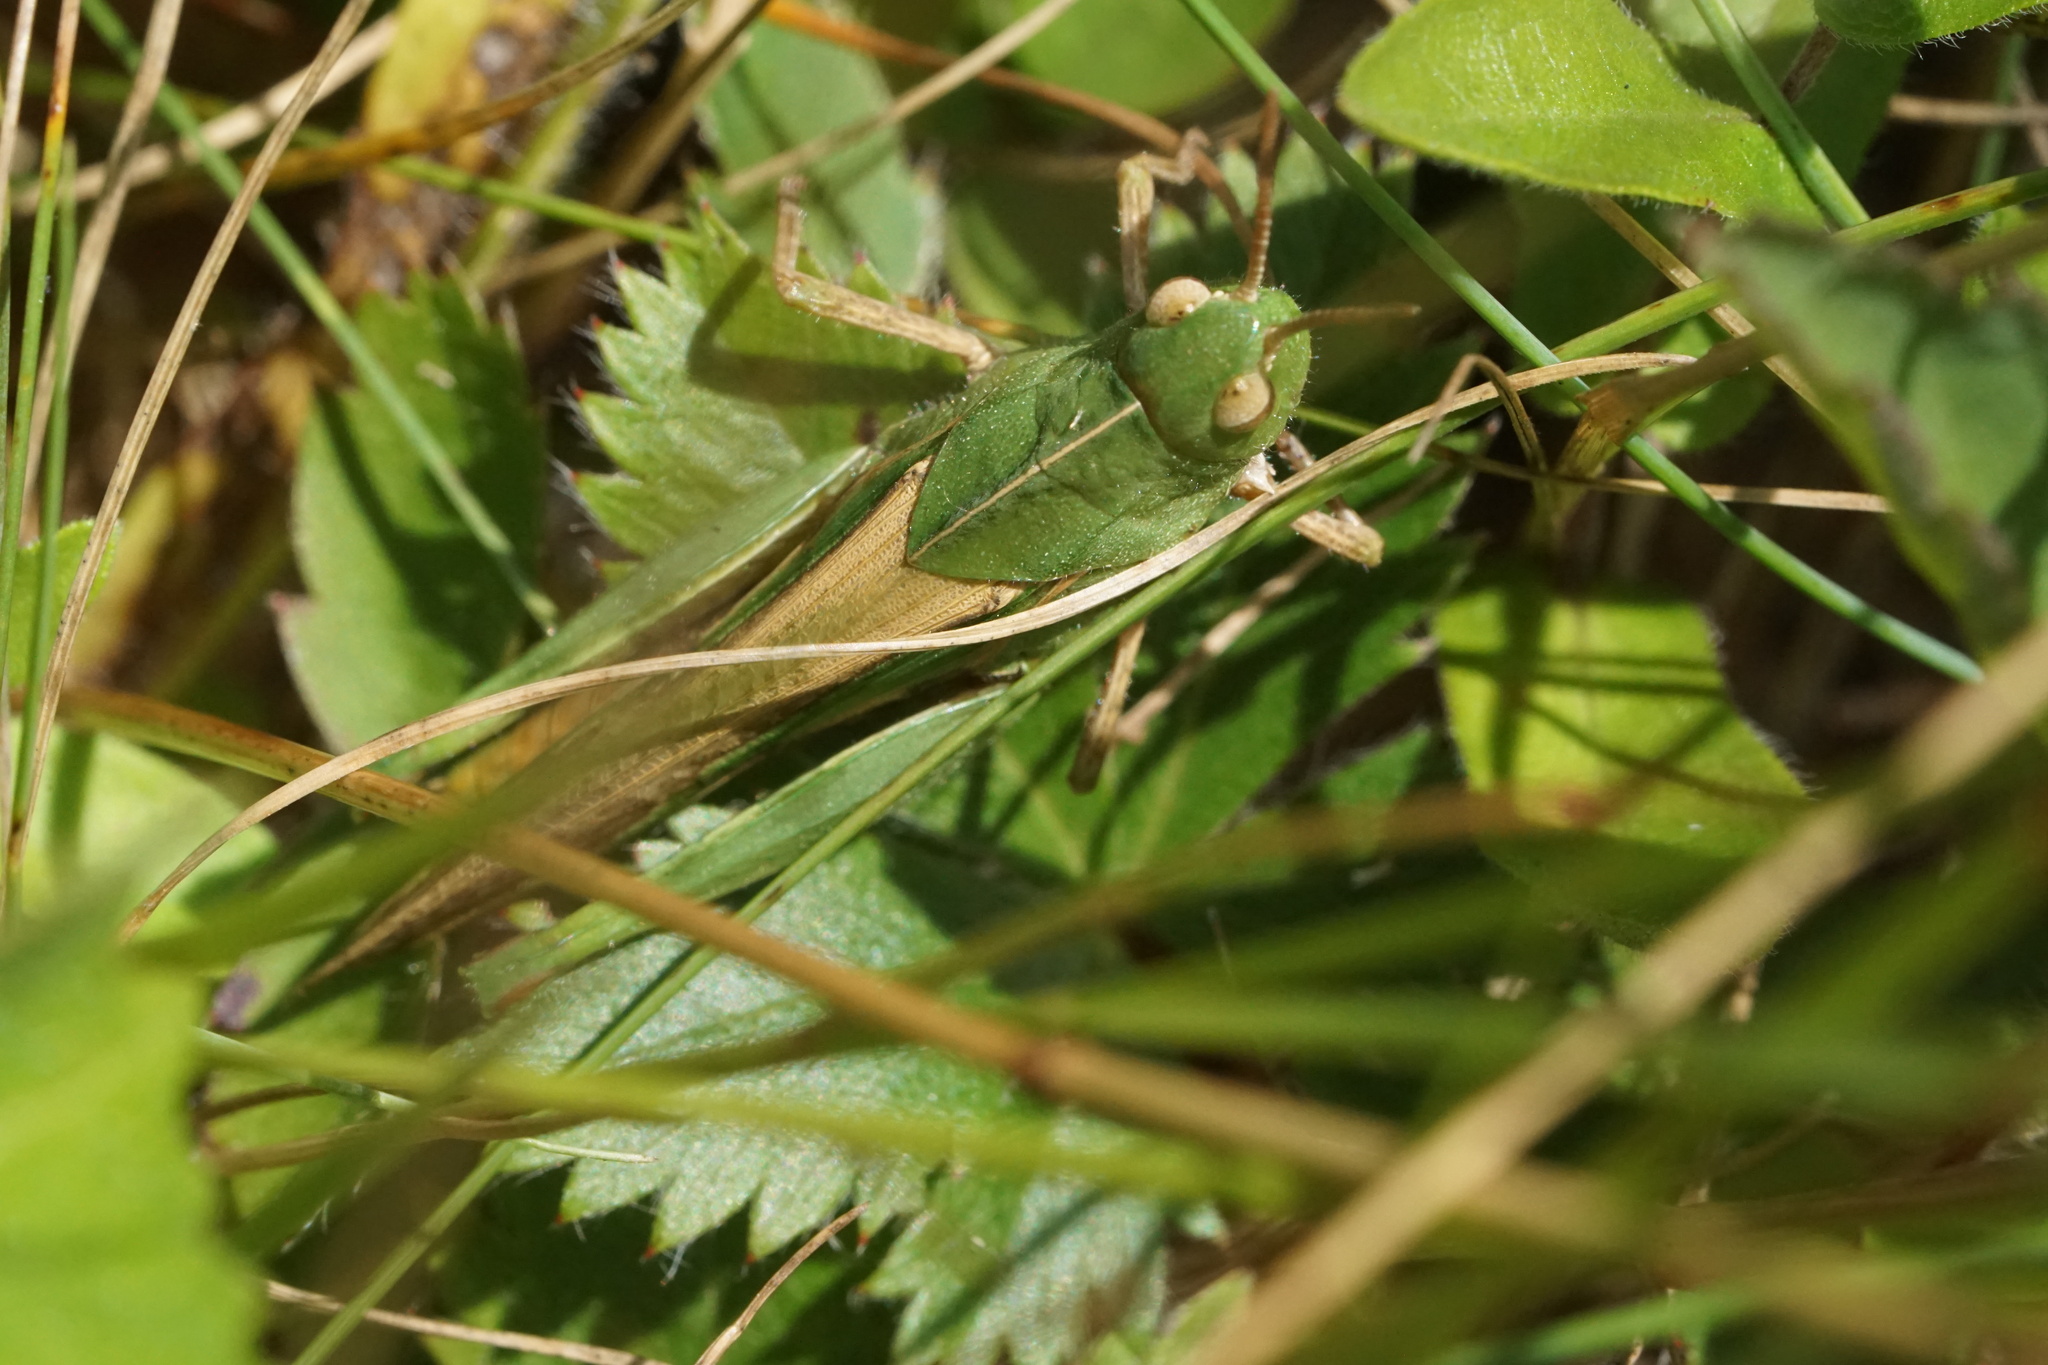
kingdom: Animalia
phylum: Arthropoda
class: Insecta
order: Orthoptera
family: Acrididae
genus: Chortophaga
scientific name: Chortophaga viridifasciata
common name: Green-striped grasshopper
